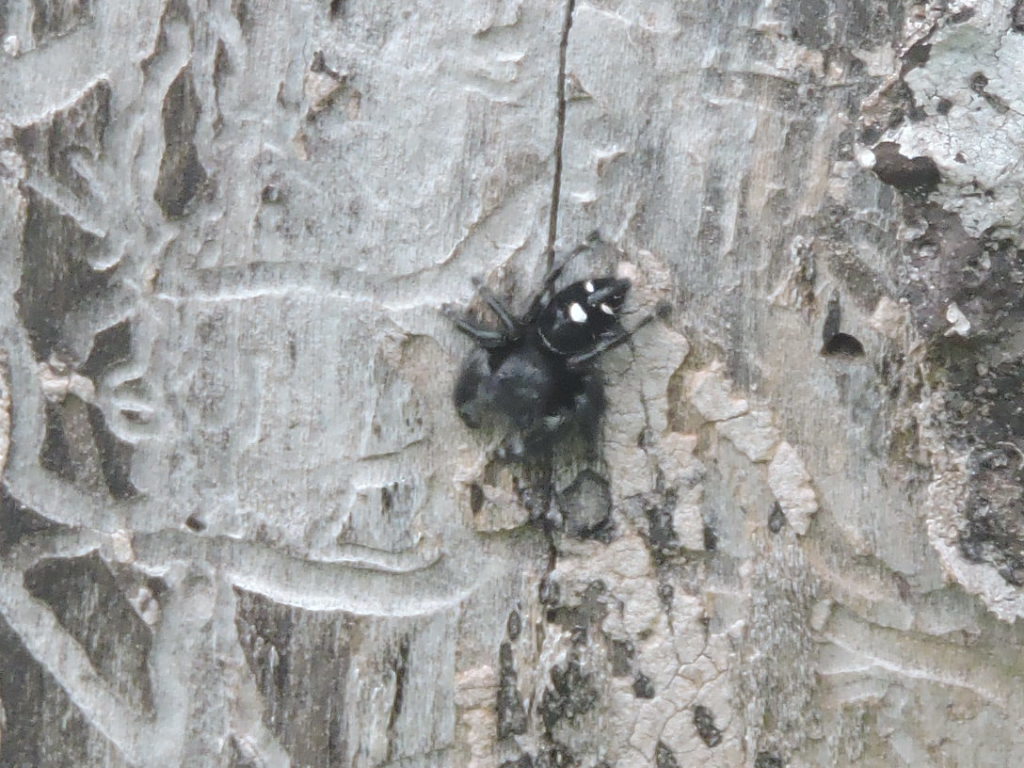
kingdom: Animalia
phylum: Arthropoda
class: Arachnida
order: Araneae
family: Salticidae
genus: Phidippus
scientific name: Phidippus audax
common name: Bold jumper
